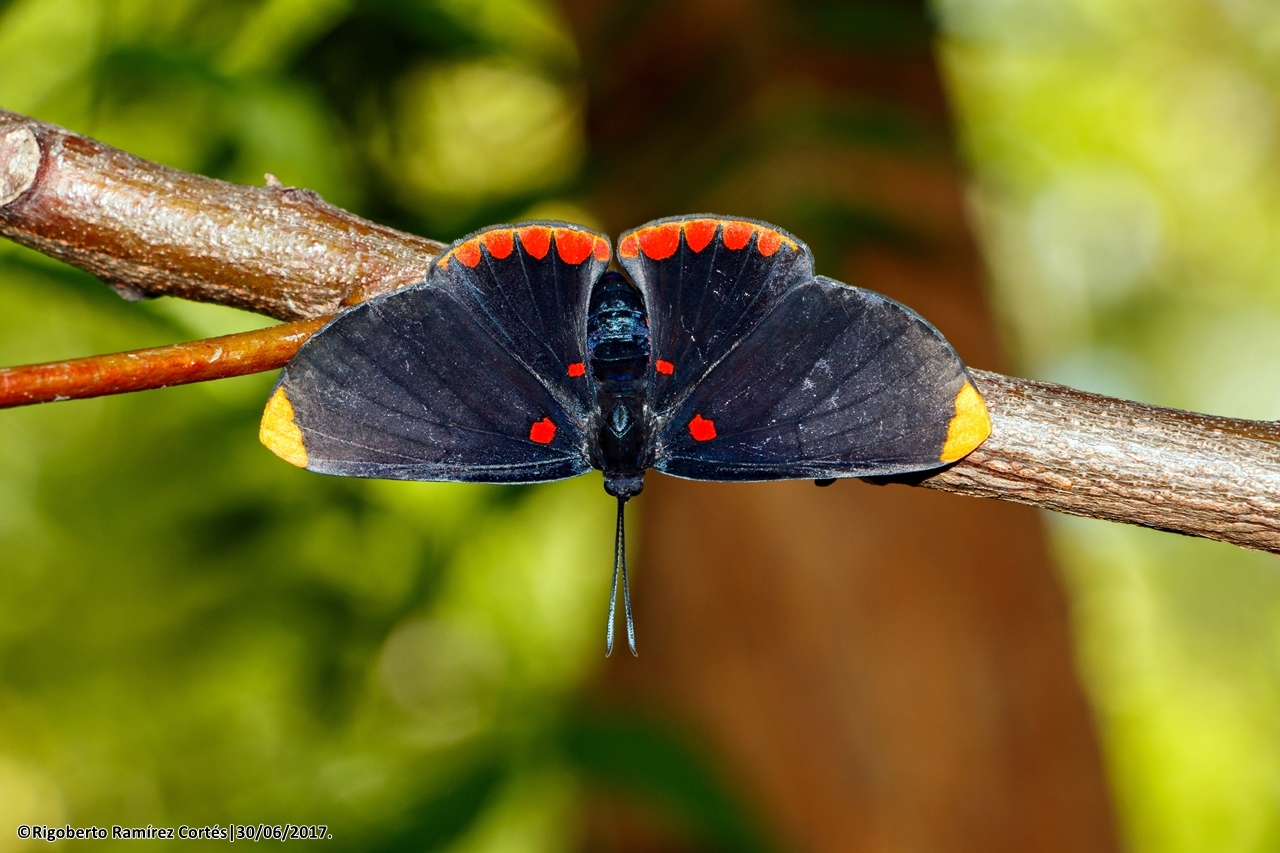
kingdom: Animalia
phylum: Arthropoda
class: Insecta
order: Lepidoptera
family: Lycaenidae
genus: Melanis
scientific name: Melanis pixe
